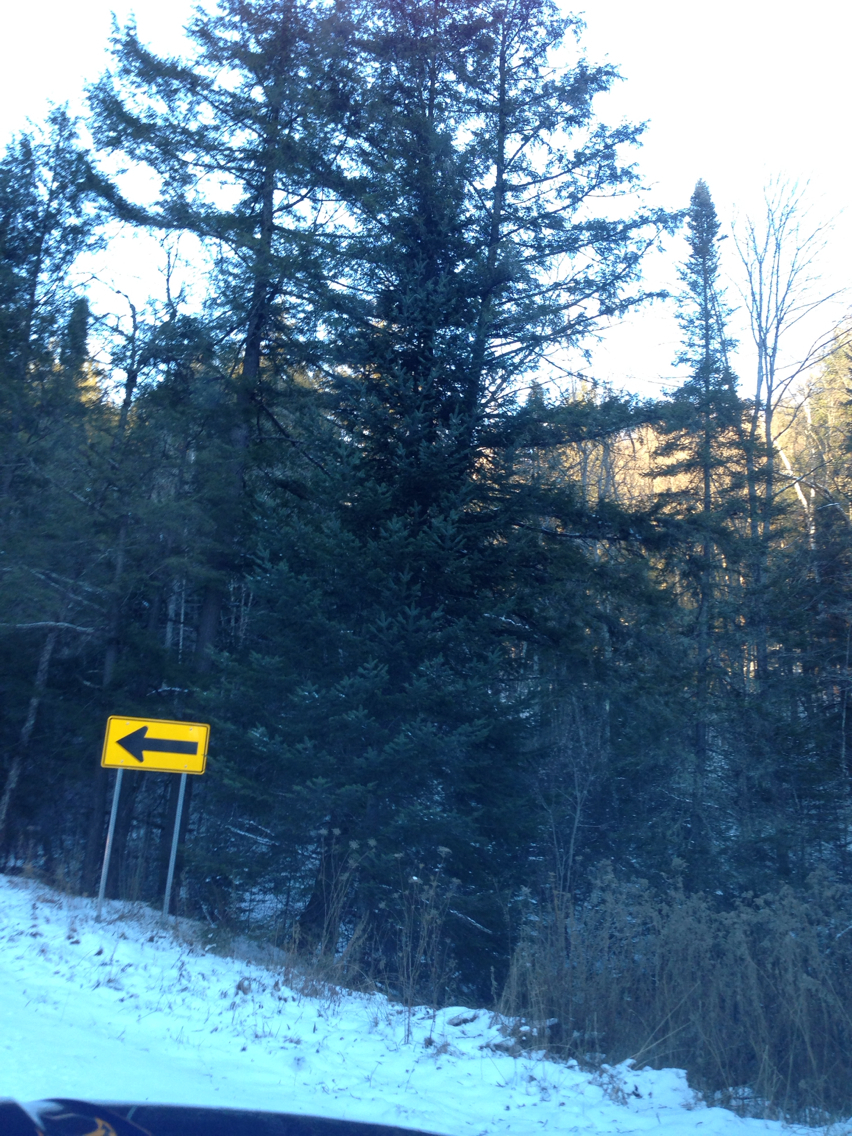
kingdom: Plantae
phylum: Tracheophyta
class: Pinopsida
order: Pinales
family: Pinaceae
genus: Abies
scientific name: Abies balsamea
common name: Balsam fir
